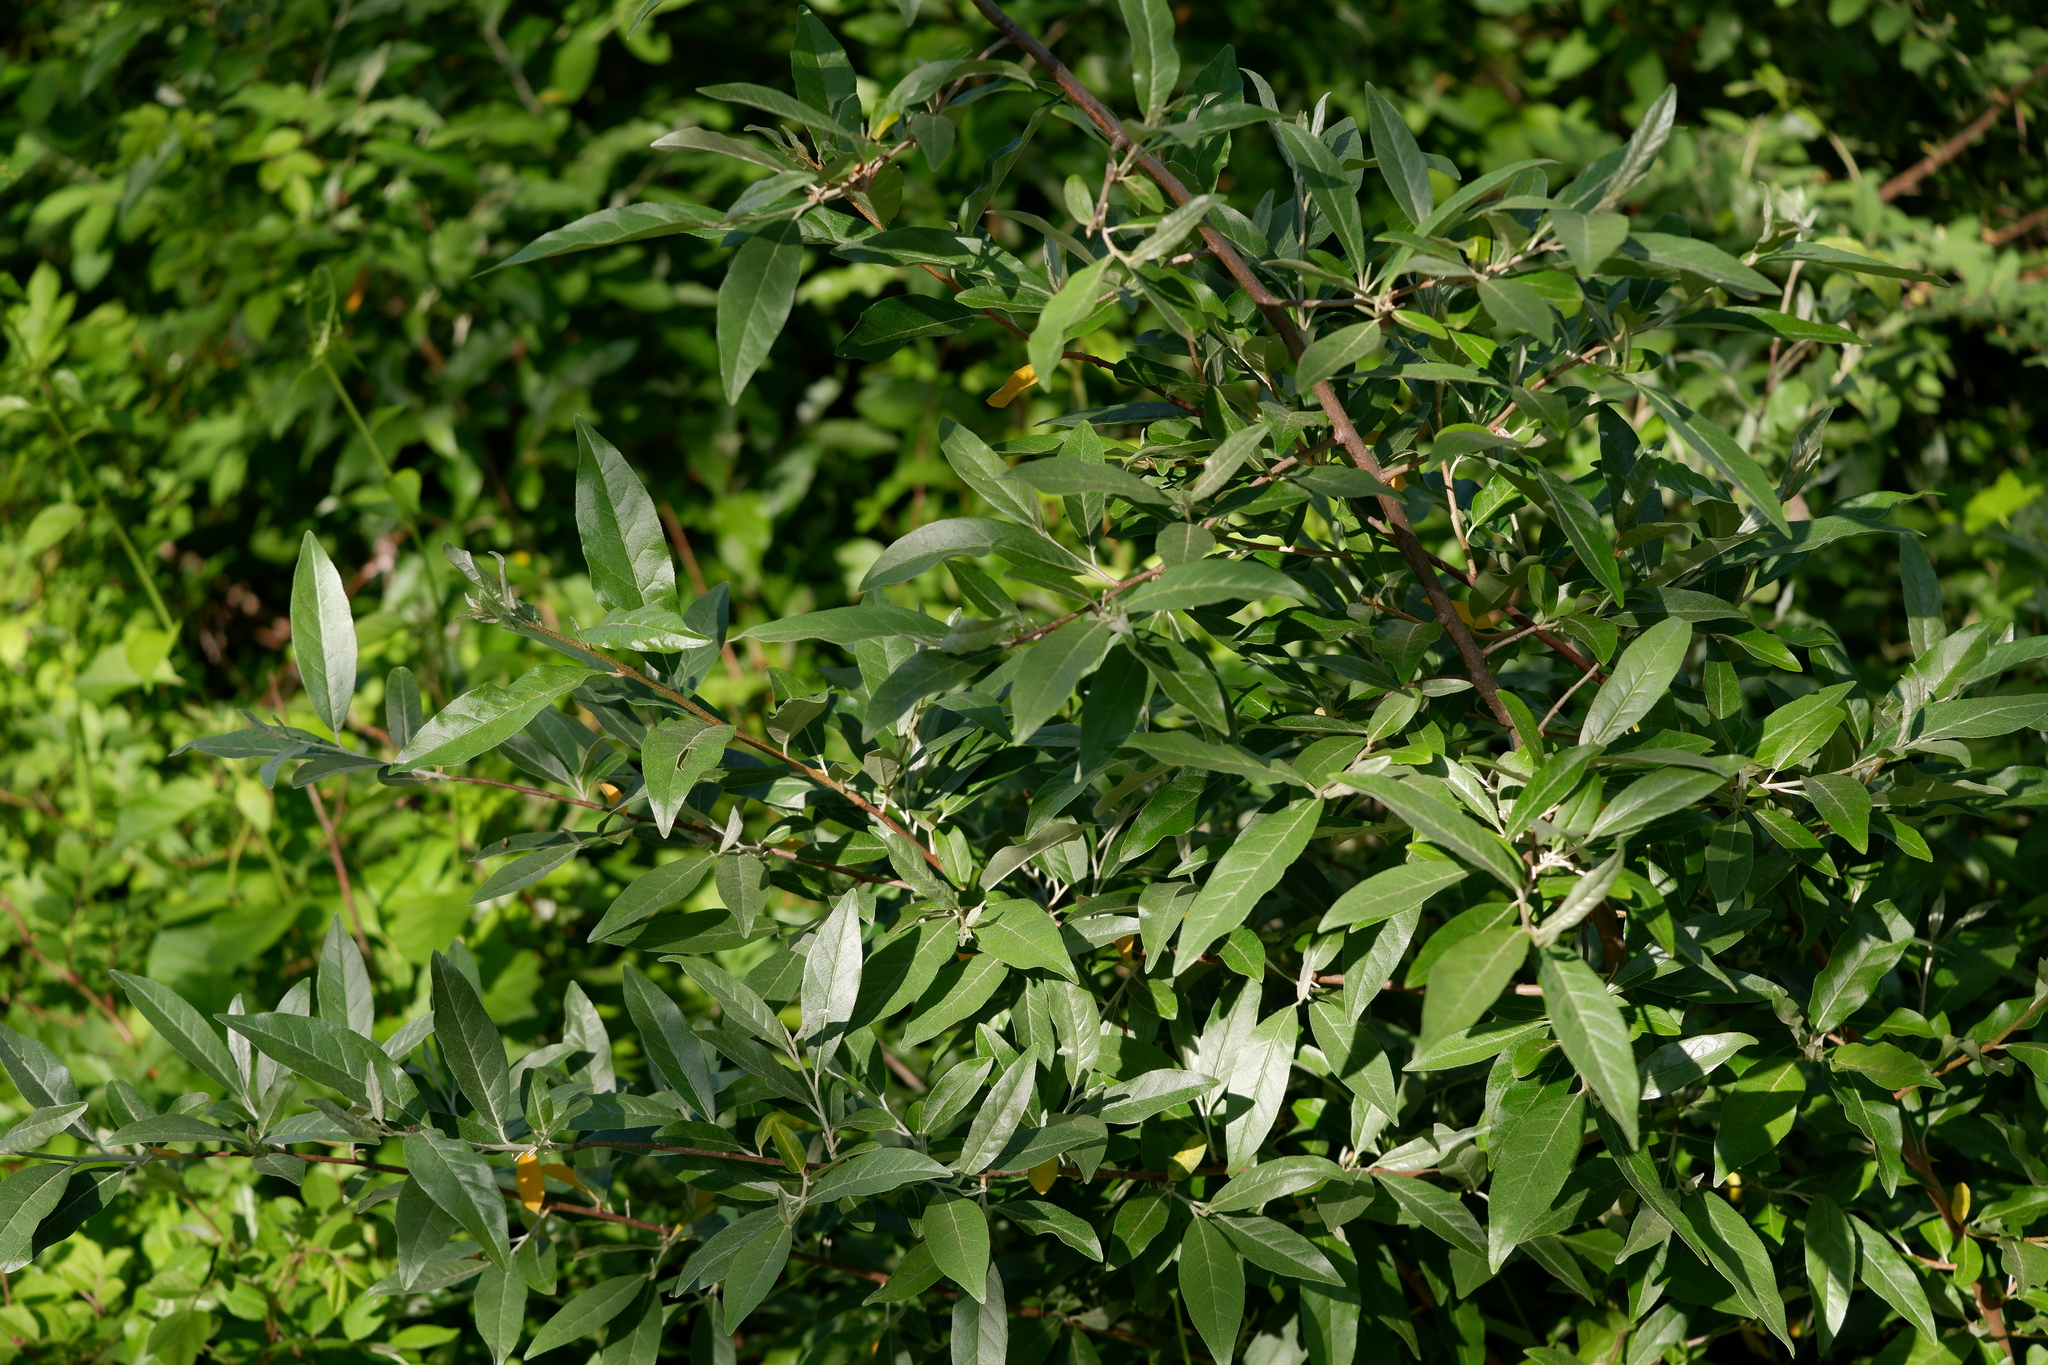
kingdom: Plantae
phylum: Tracheophyta
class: Magnoliopsida
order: Rosales
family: Elaeagnaceae
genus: Elaeagnus
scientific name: Elaeagnus umbellata
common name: Autumn olive
